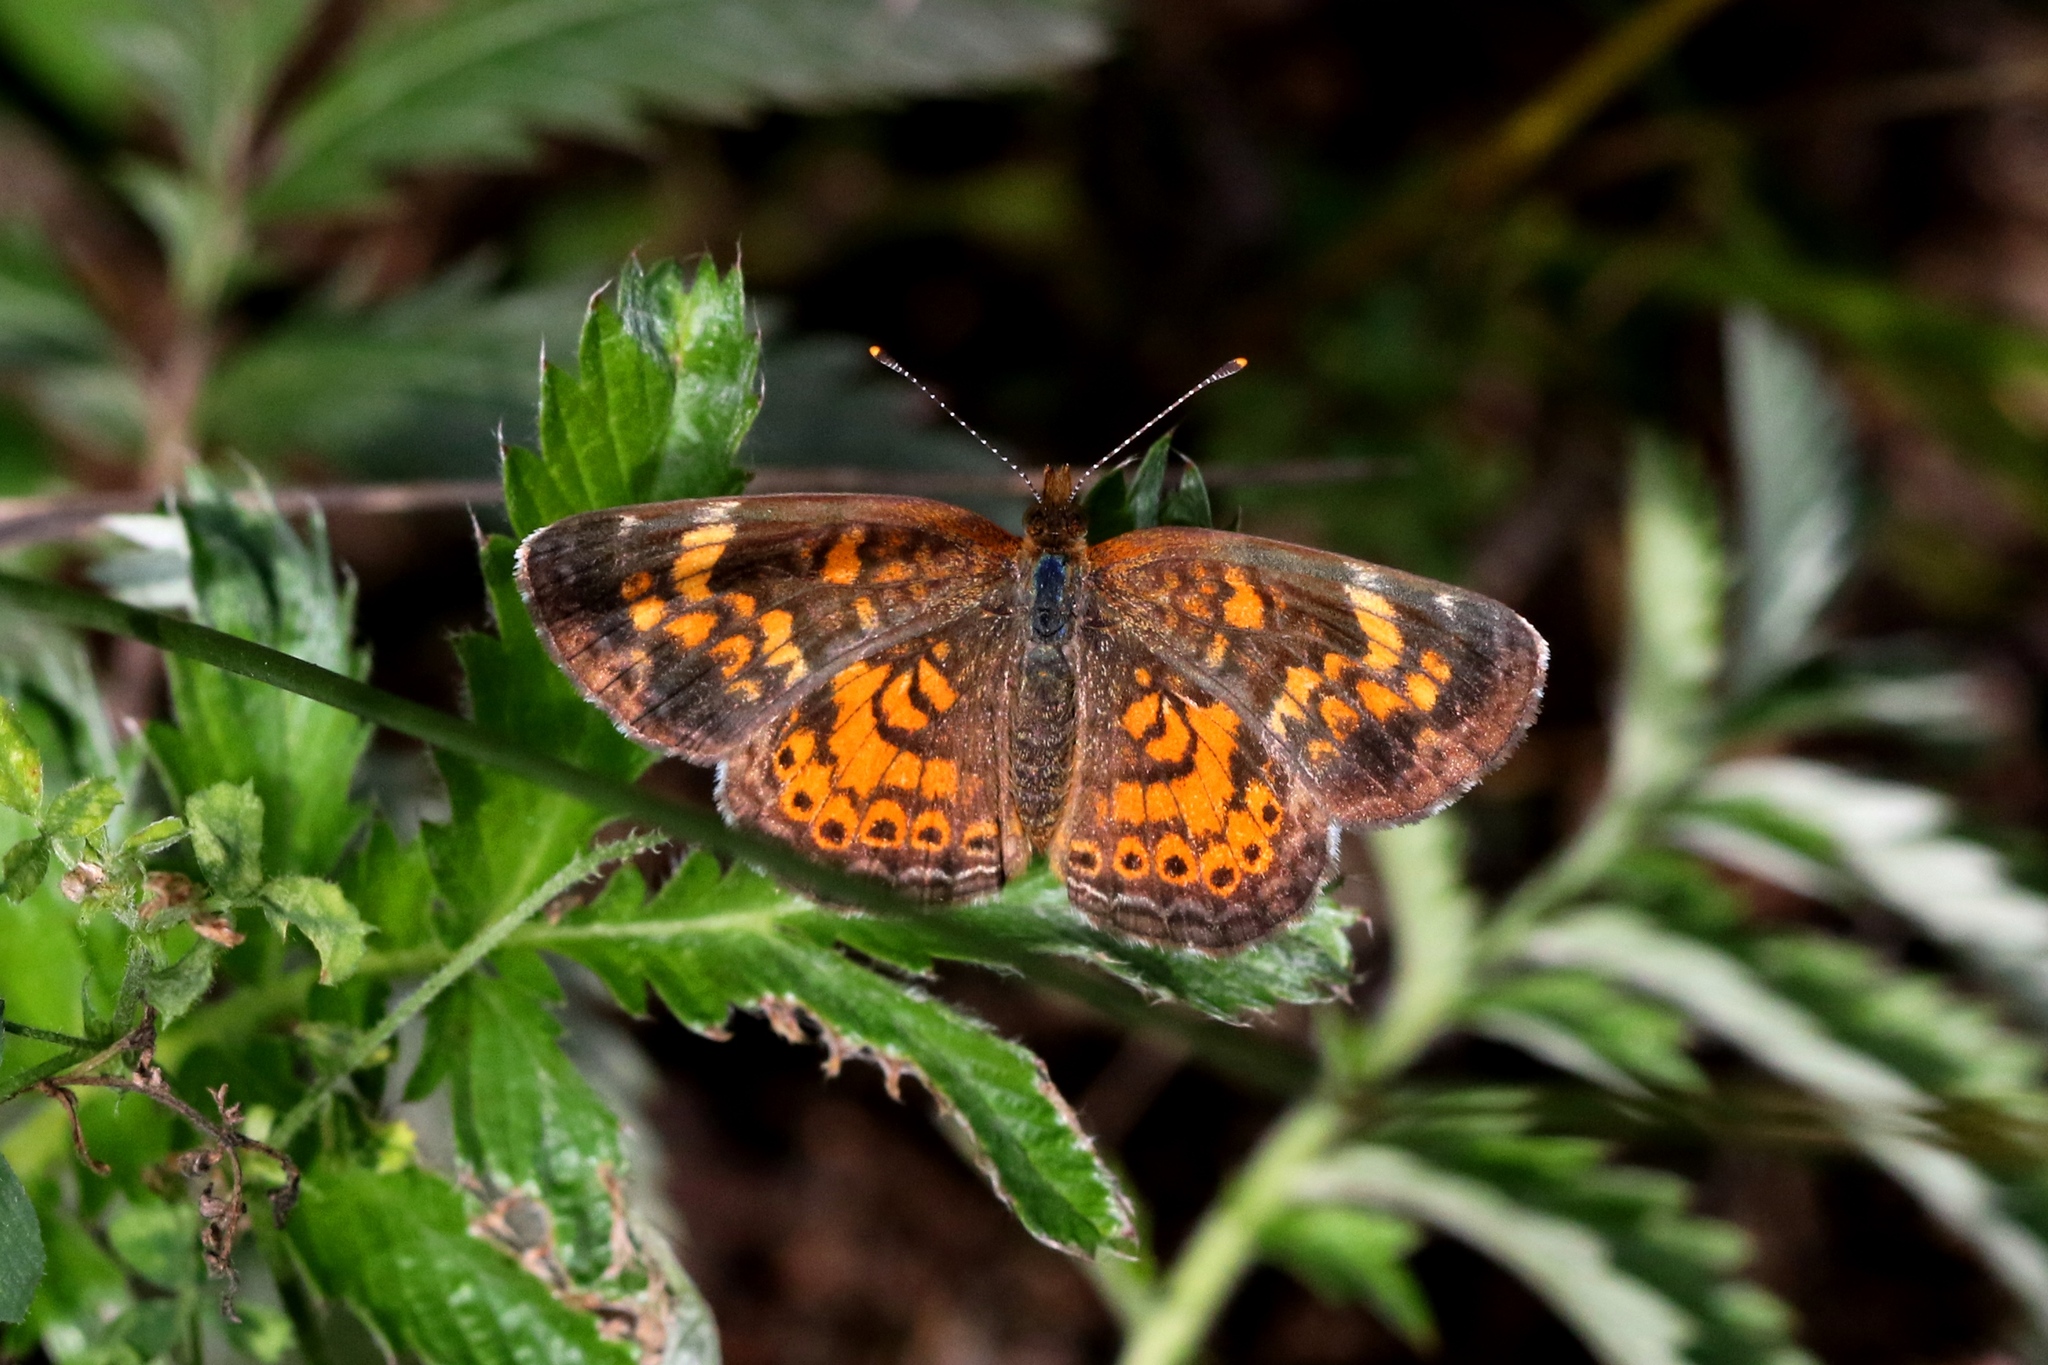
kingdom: Animalia
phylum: Arthropoda
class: Insecta
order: Lepidoptera
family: Nymphalidae
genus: Phyciodes
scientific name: Phyciodes tharos
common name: Pearl crescent
